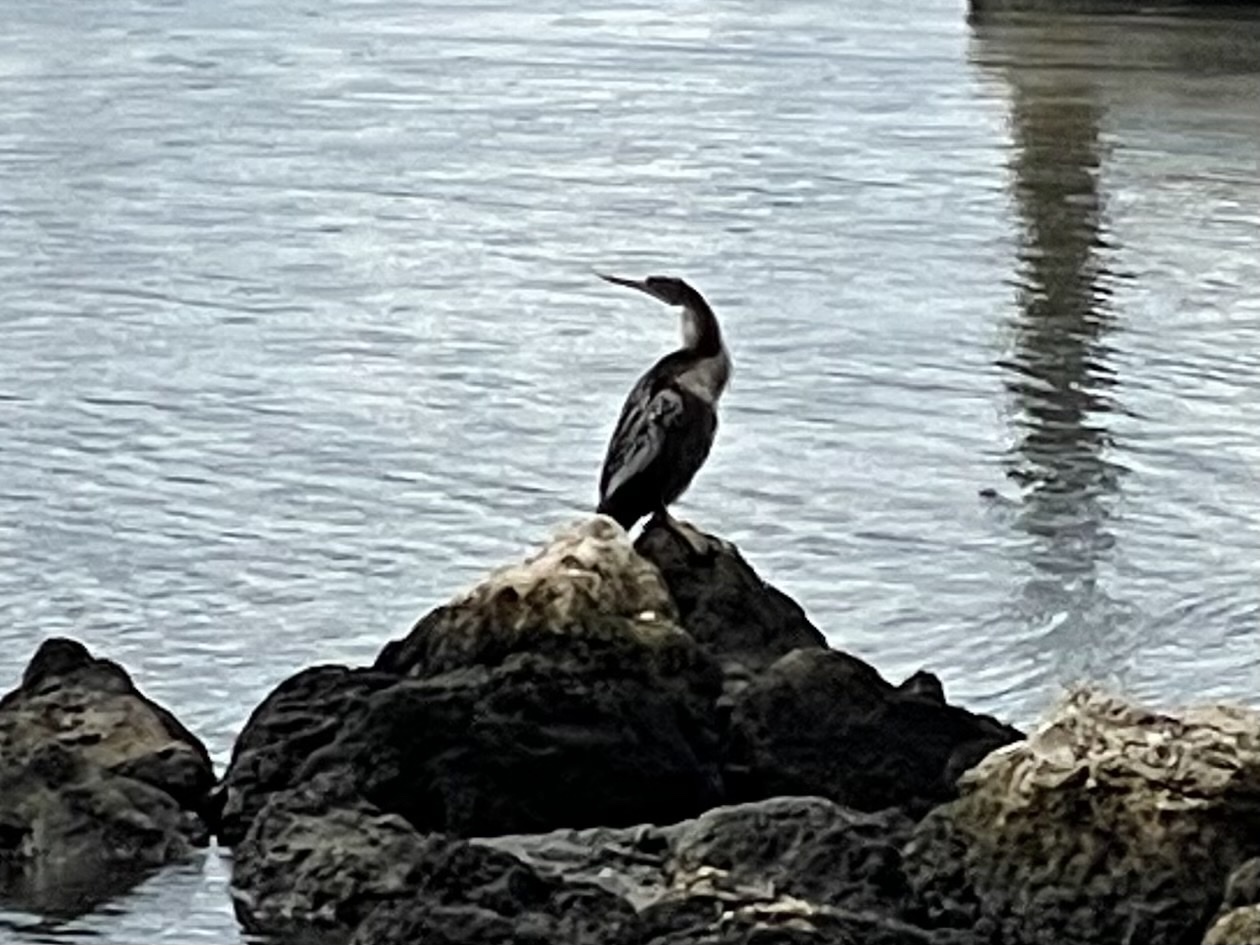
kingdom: Animalia
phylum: Chordata
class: Aves
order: Suliformes
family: Anhingidae
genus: Anhinga
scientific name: Anhinga anhinga
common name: Anhinga
